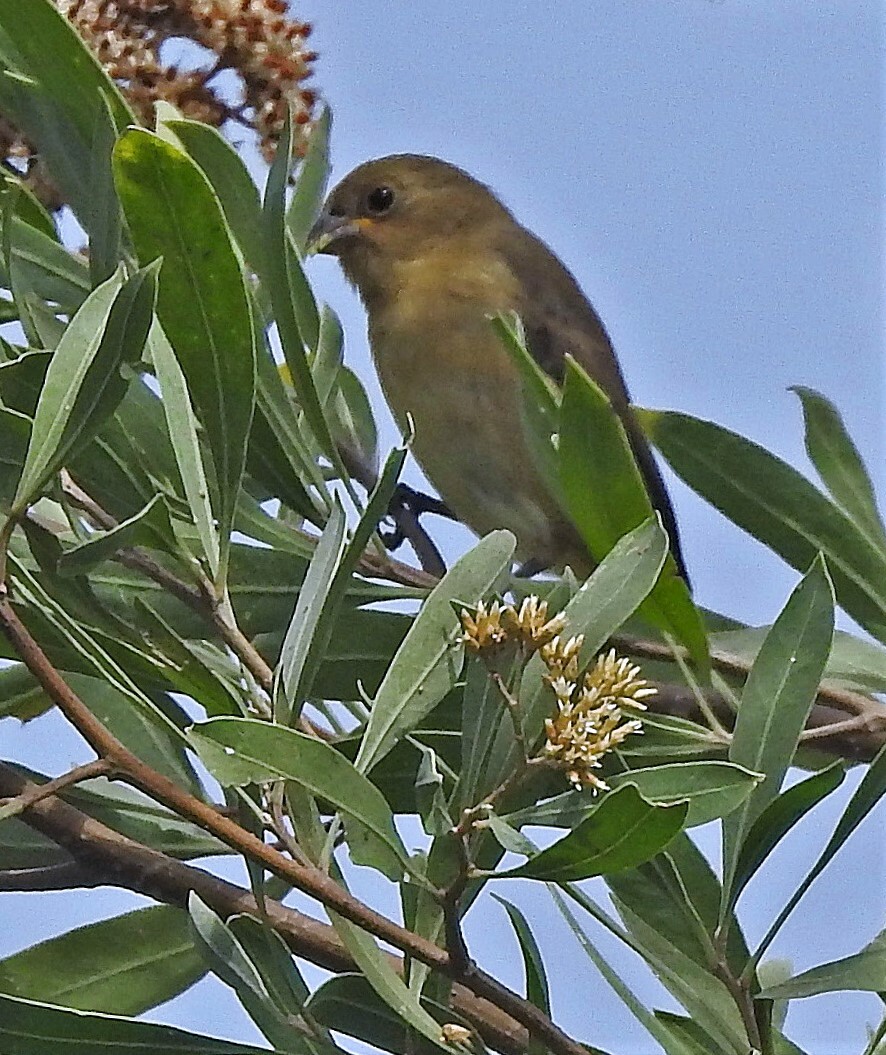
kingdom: Animalia
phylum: Chordata
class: Aves
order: Passeriformes
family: Thraupidae
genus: Sporophila
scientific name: Sporophila caerulescens
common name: Double-collared seedeater
